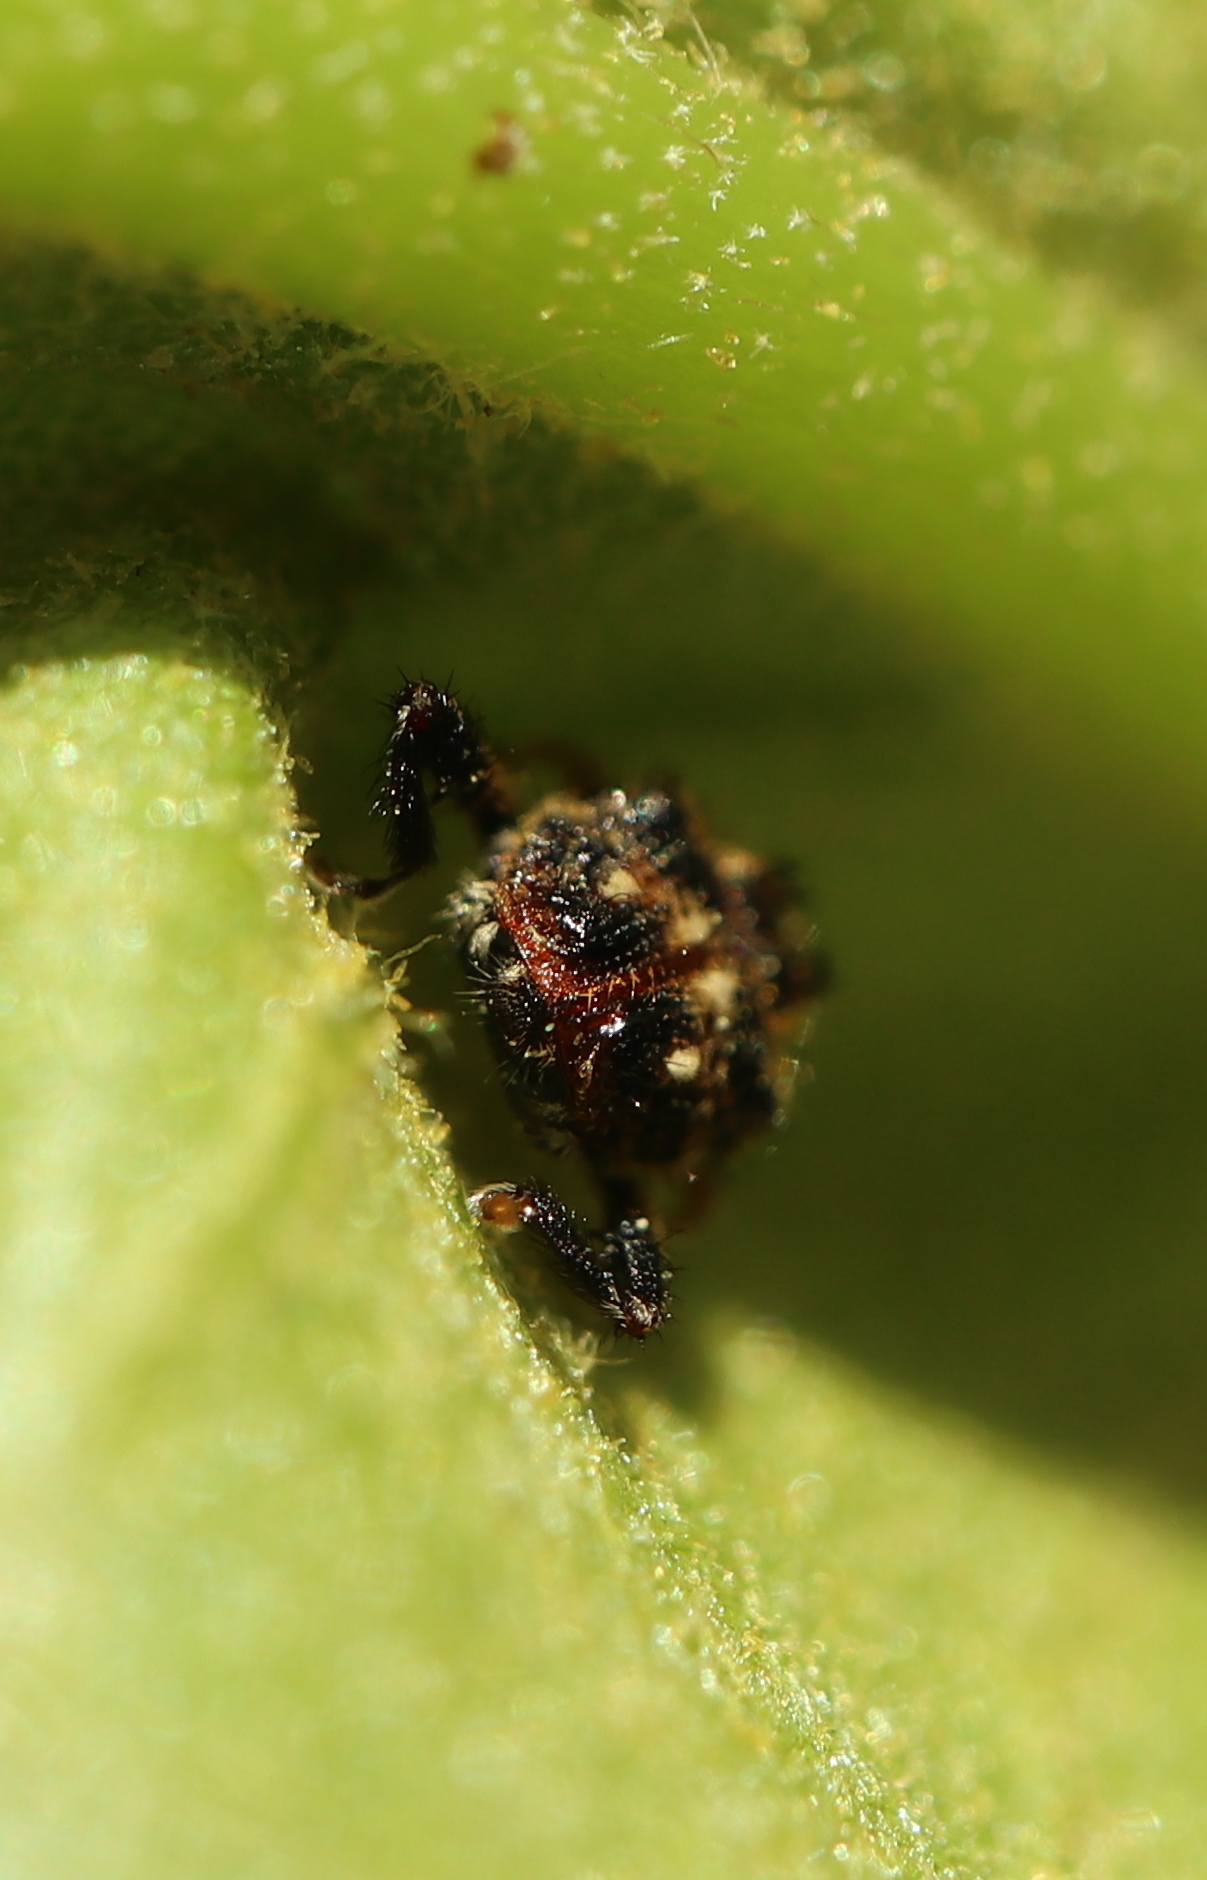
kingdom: Animalia
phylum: Arthropoda
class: Insecta
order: Coleoptera
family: Curculionidae
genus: Tachygonus
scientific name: Tachygonus lecontei
